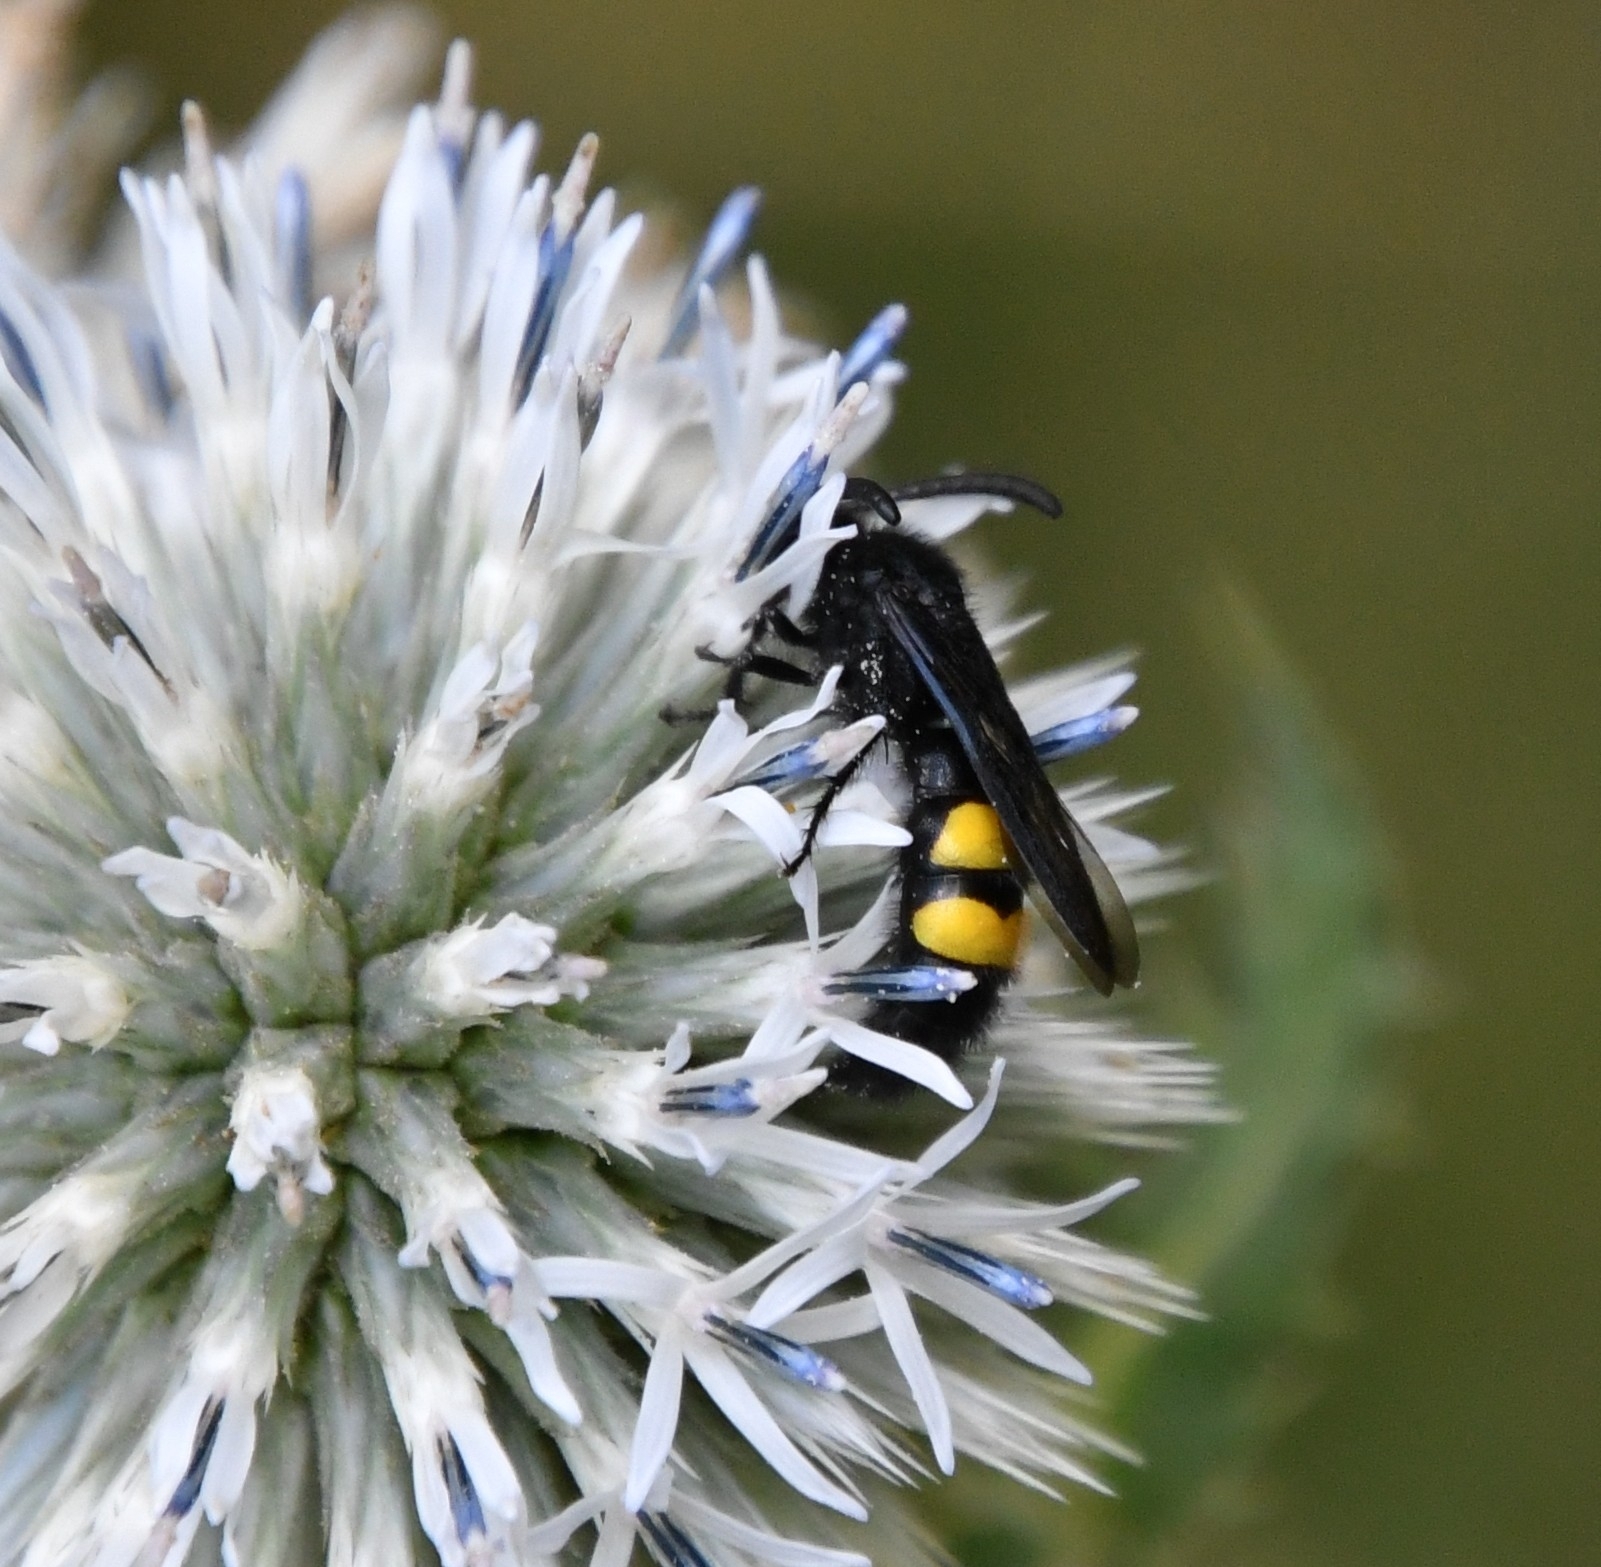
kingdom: Animalia
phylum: Arthropoda
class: Insecta
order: Hymenoptera
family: Scoliidae
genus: Scolia
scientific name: Scolia hirta
